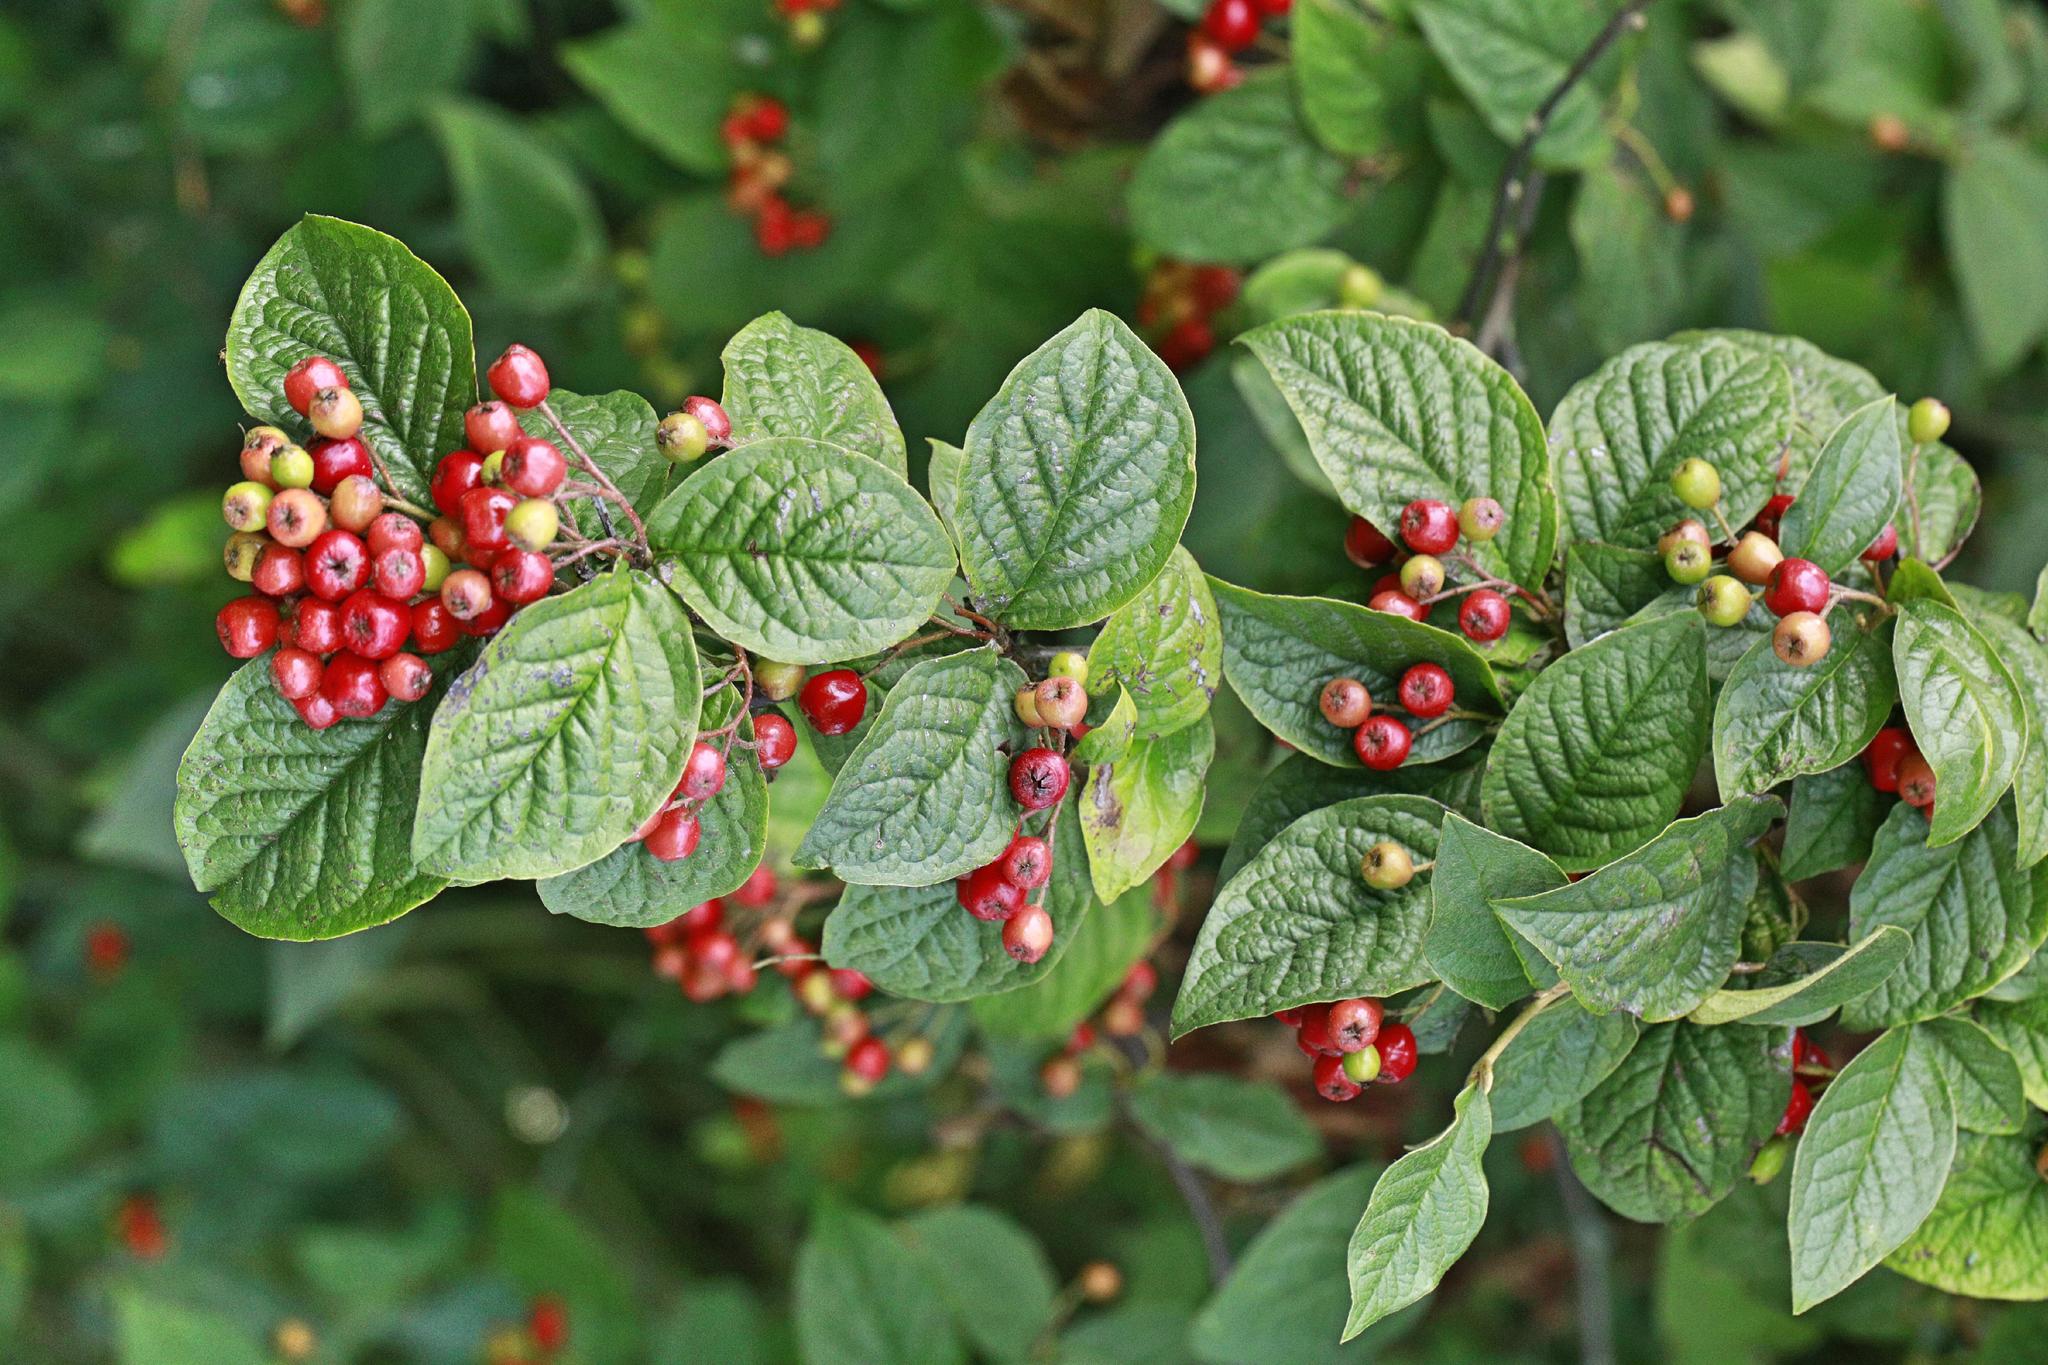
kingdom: Plantae
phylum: Tracheophyta
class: Magnoliopsida
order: Rosales
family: Rosaceae
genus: Cotoneaster
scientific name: Cotoneaster bullatus
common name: Hollyberry cotoneaster
